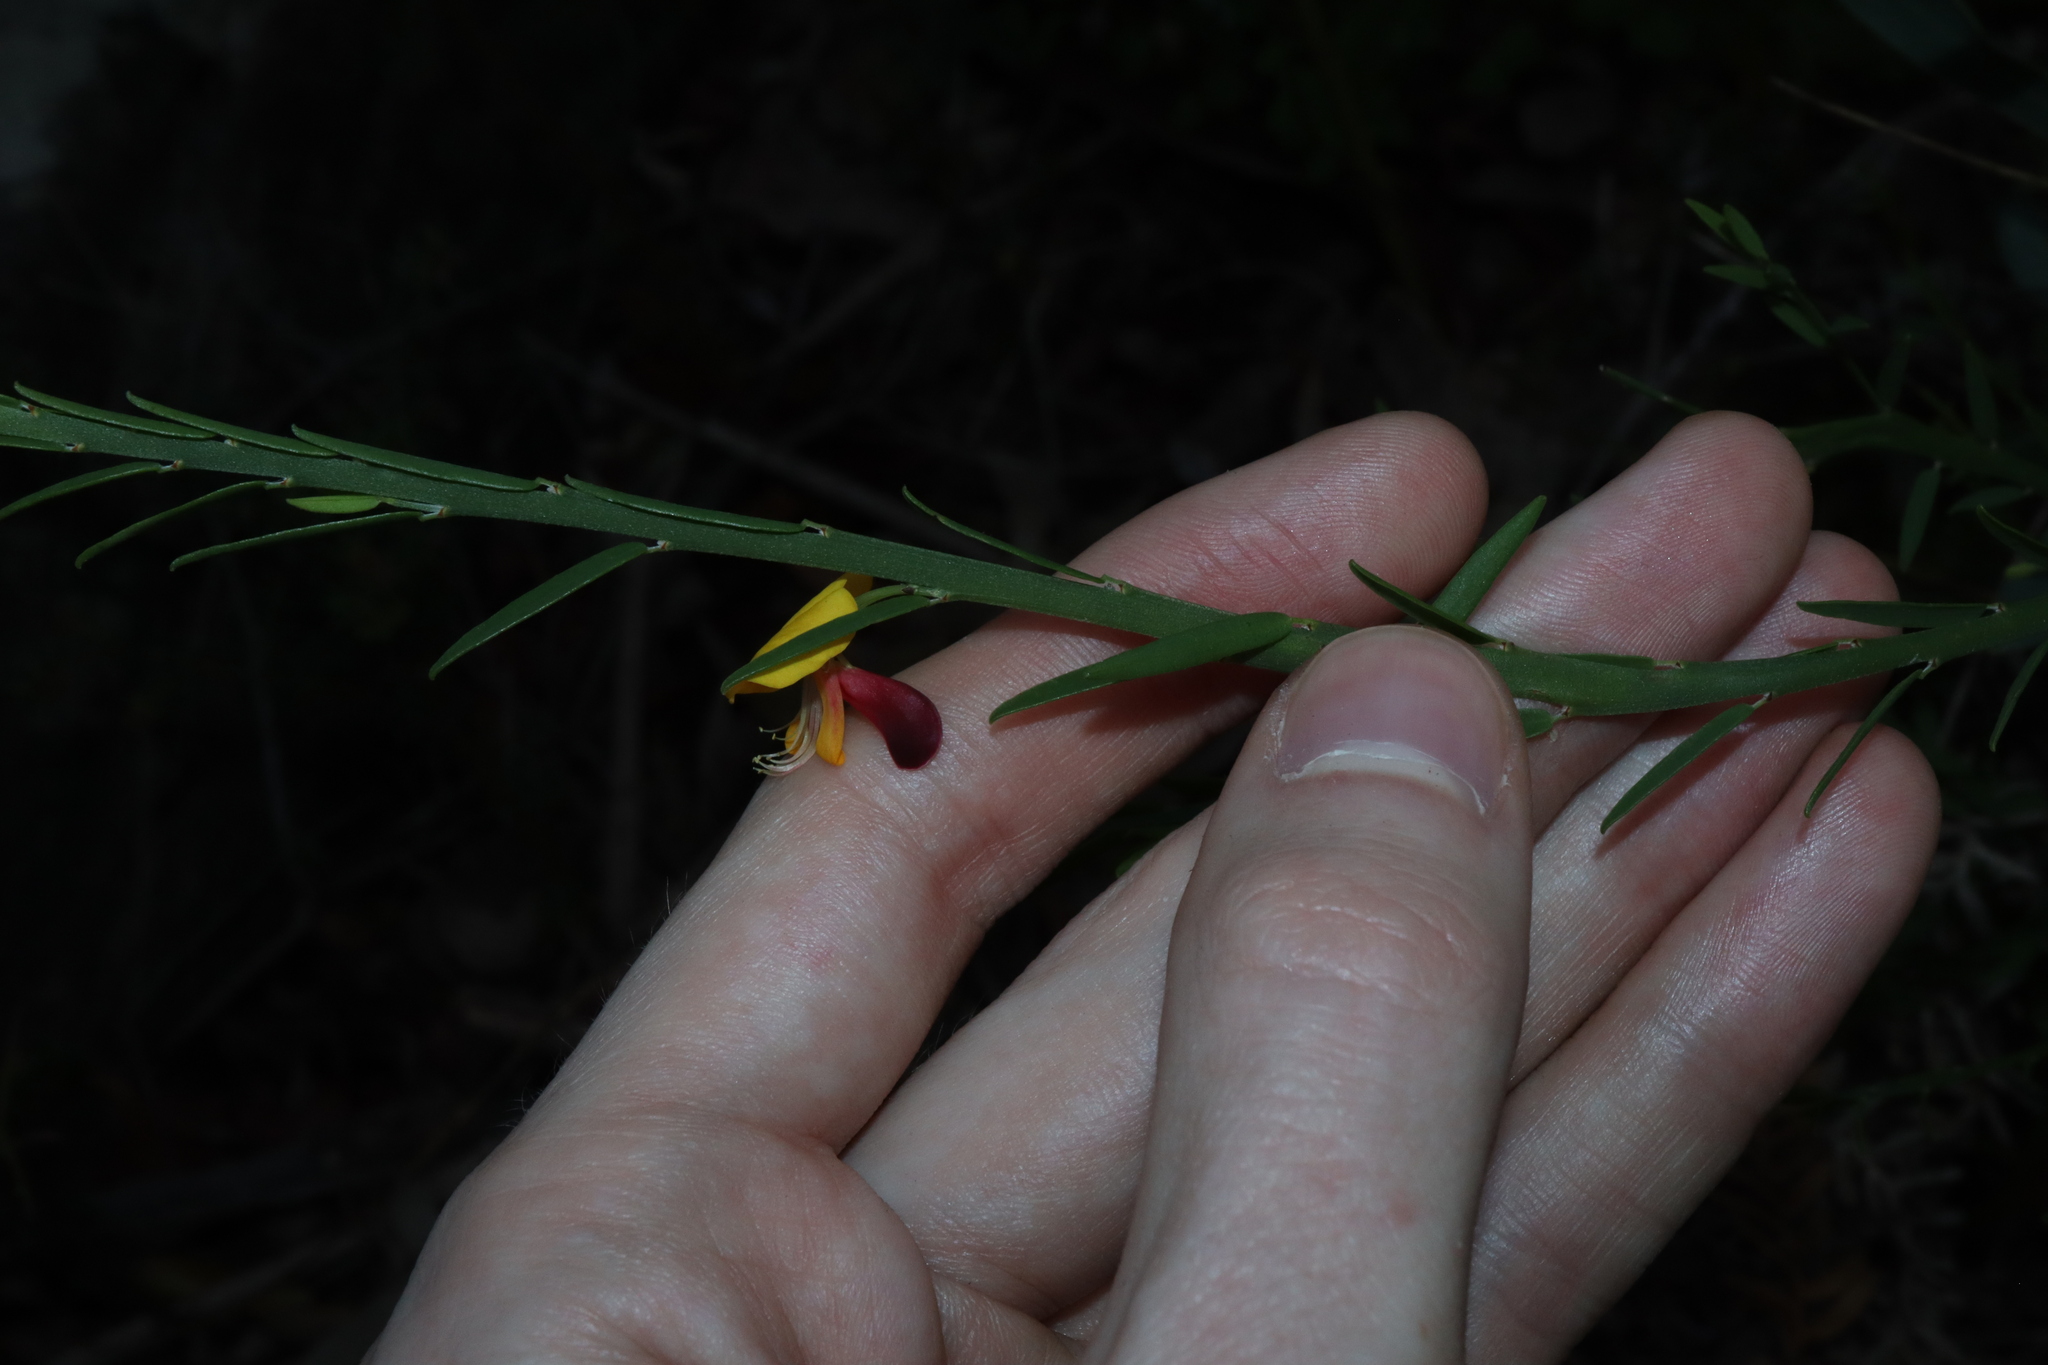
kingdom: Plantae
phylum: Tracheophyta
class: Magnoliopsida
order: Fabales
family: Fabaceae
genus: Bossiaea
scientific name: Bossiaea heterophylla
